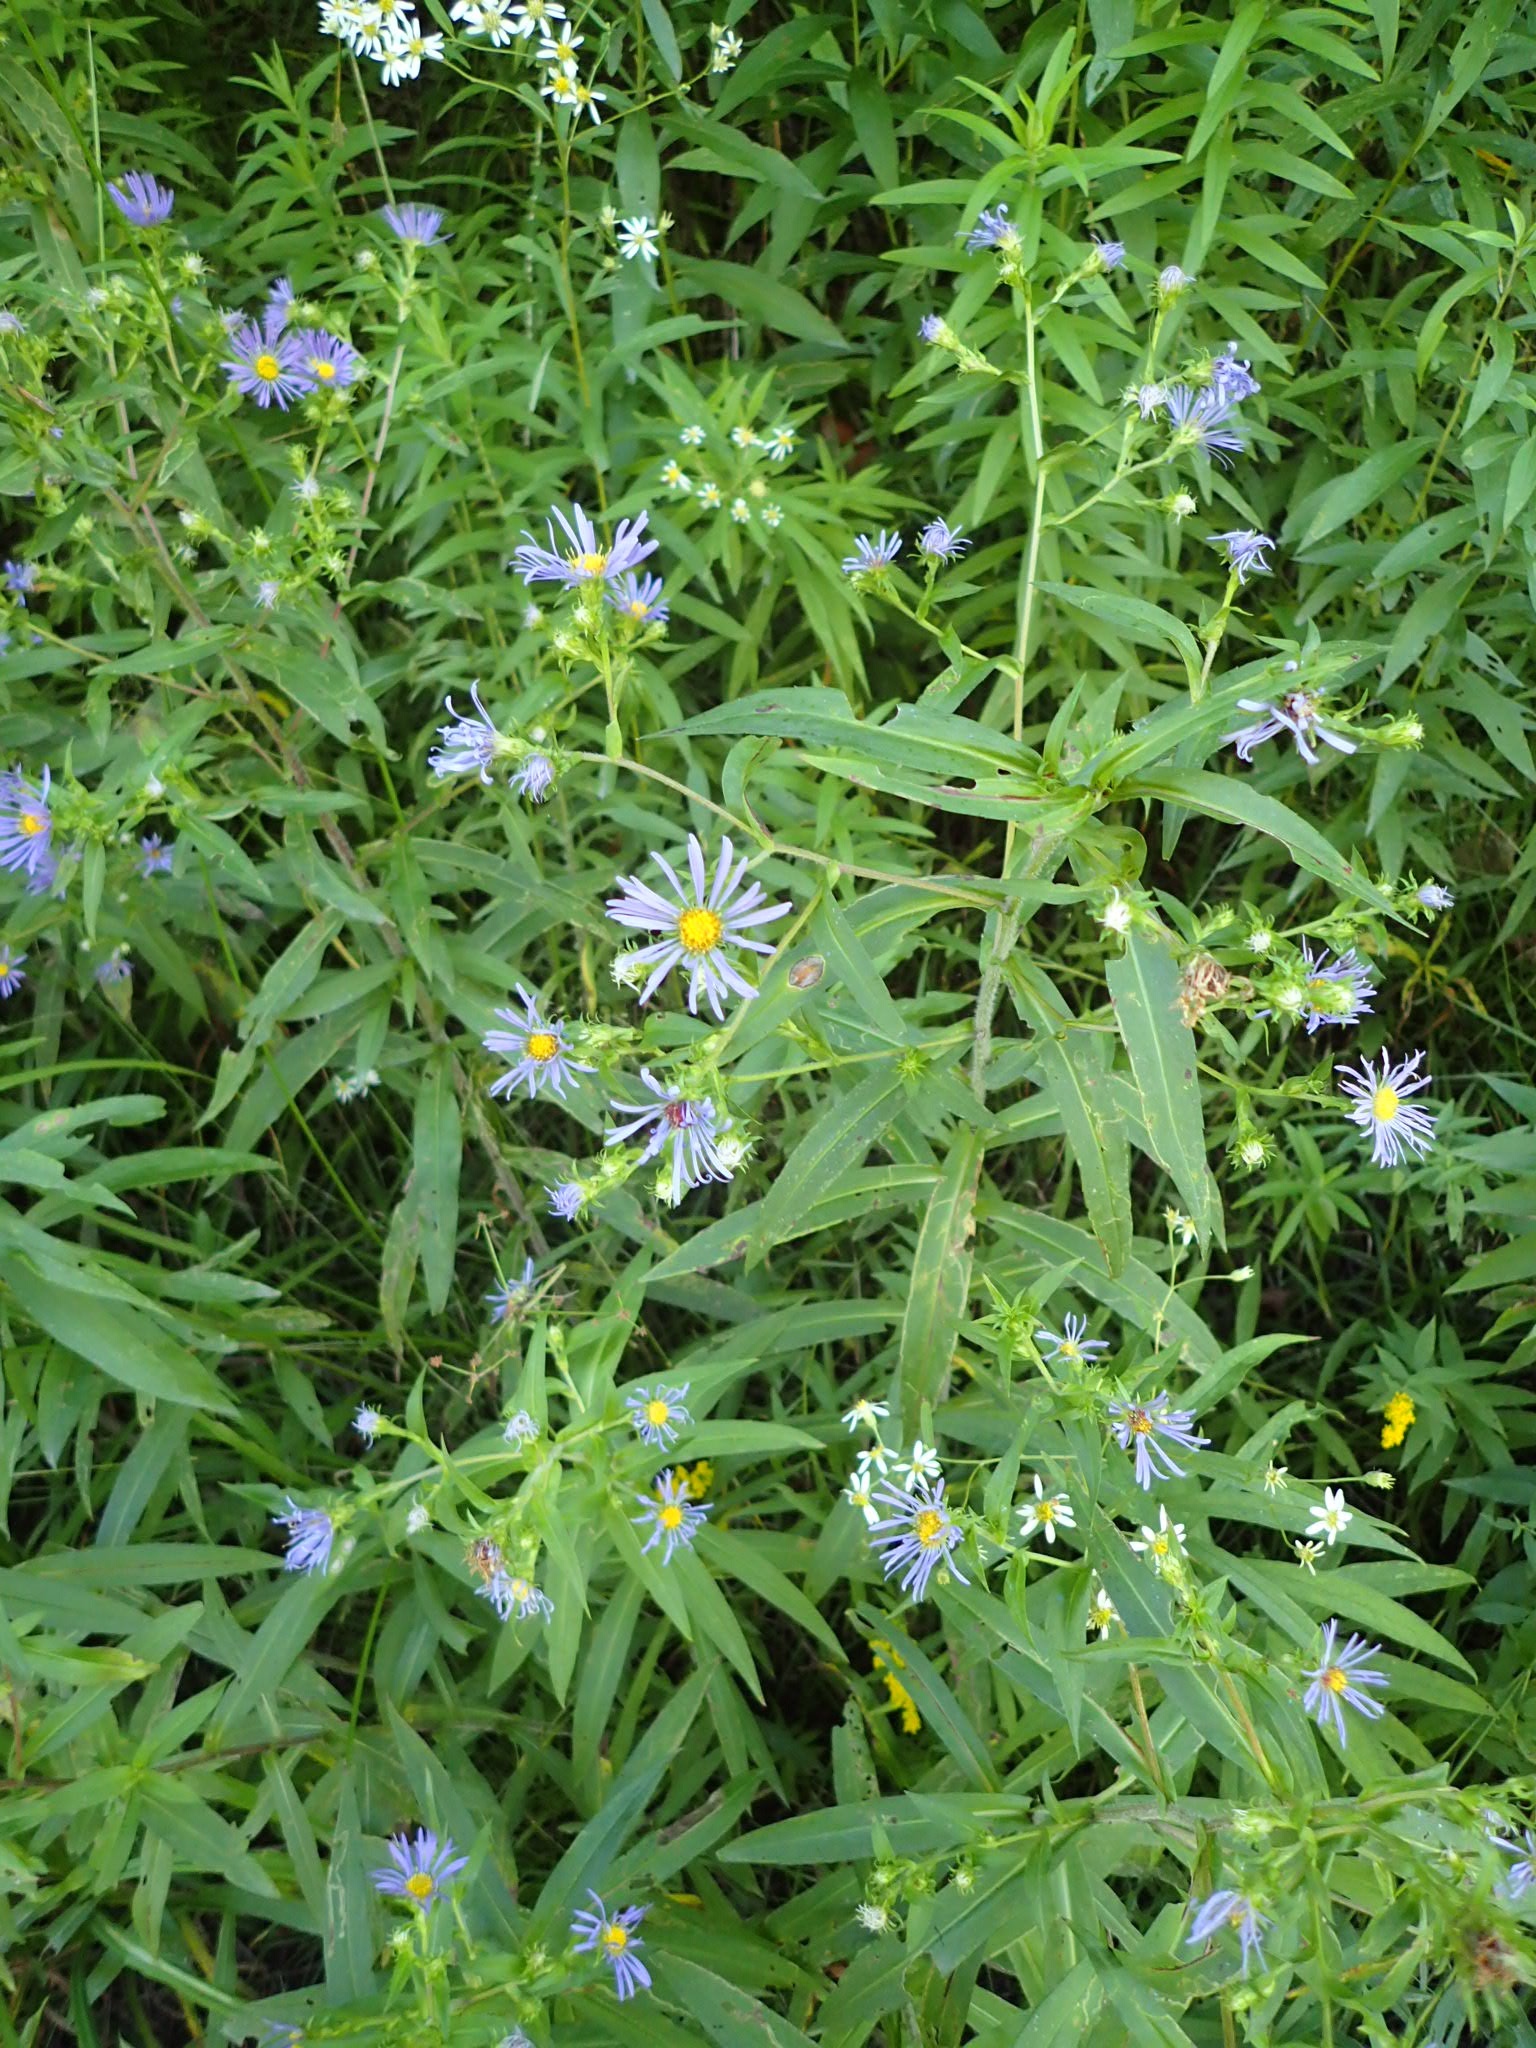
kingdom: Plantae
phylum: Tracheophyta
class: Magnoliopsida
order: Asterales
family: Asteraceae
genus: Symphyotrichum
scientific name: Symphyotrichum puniceum
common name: Bog aster
